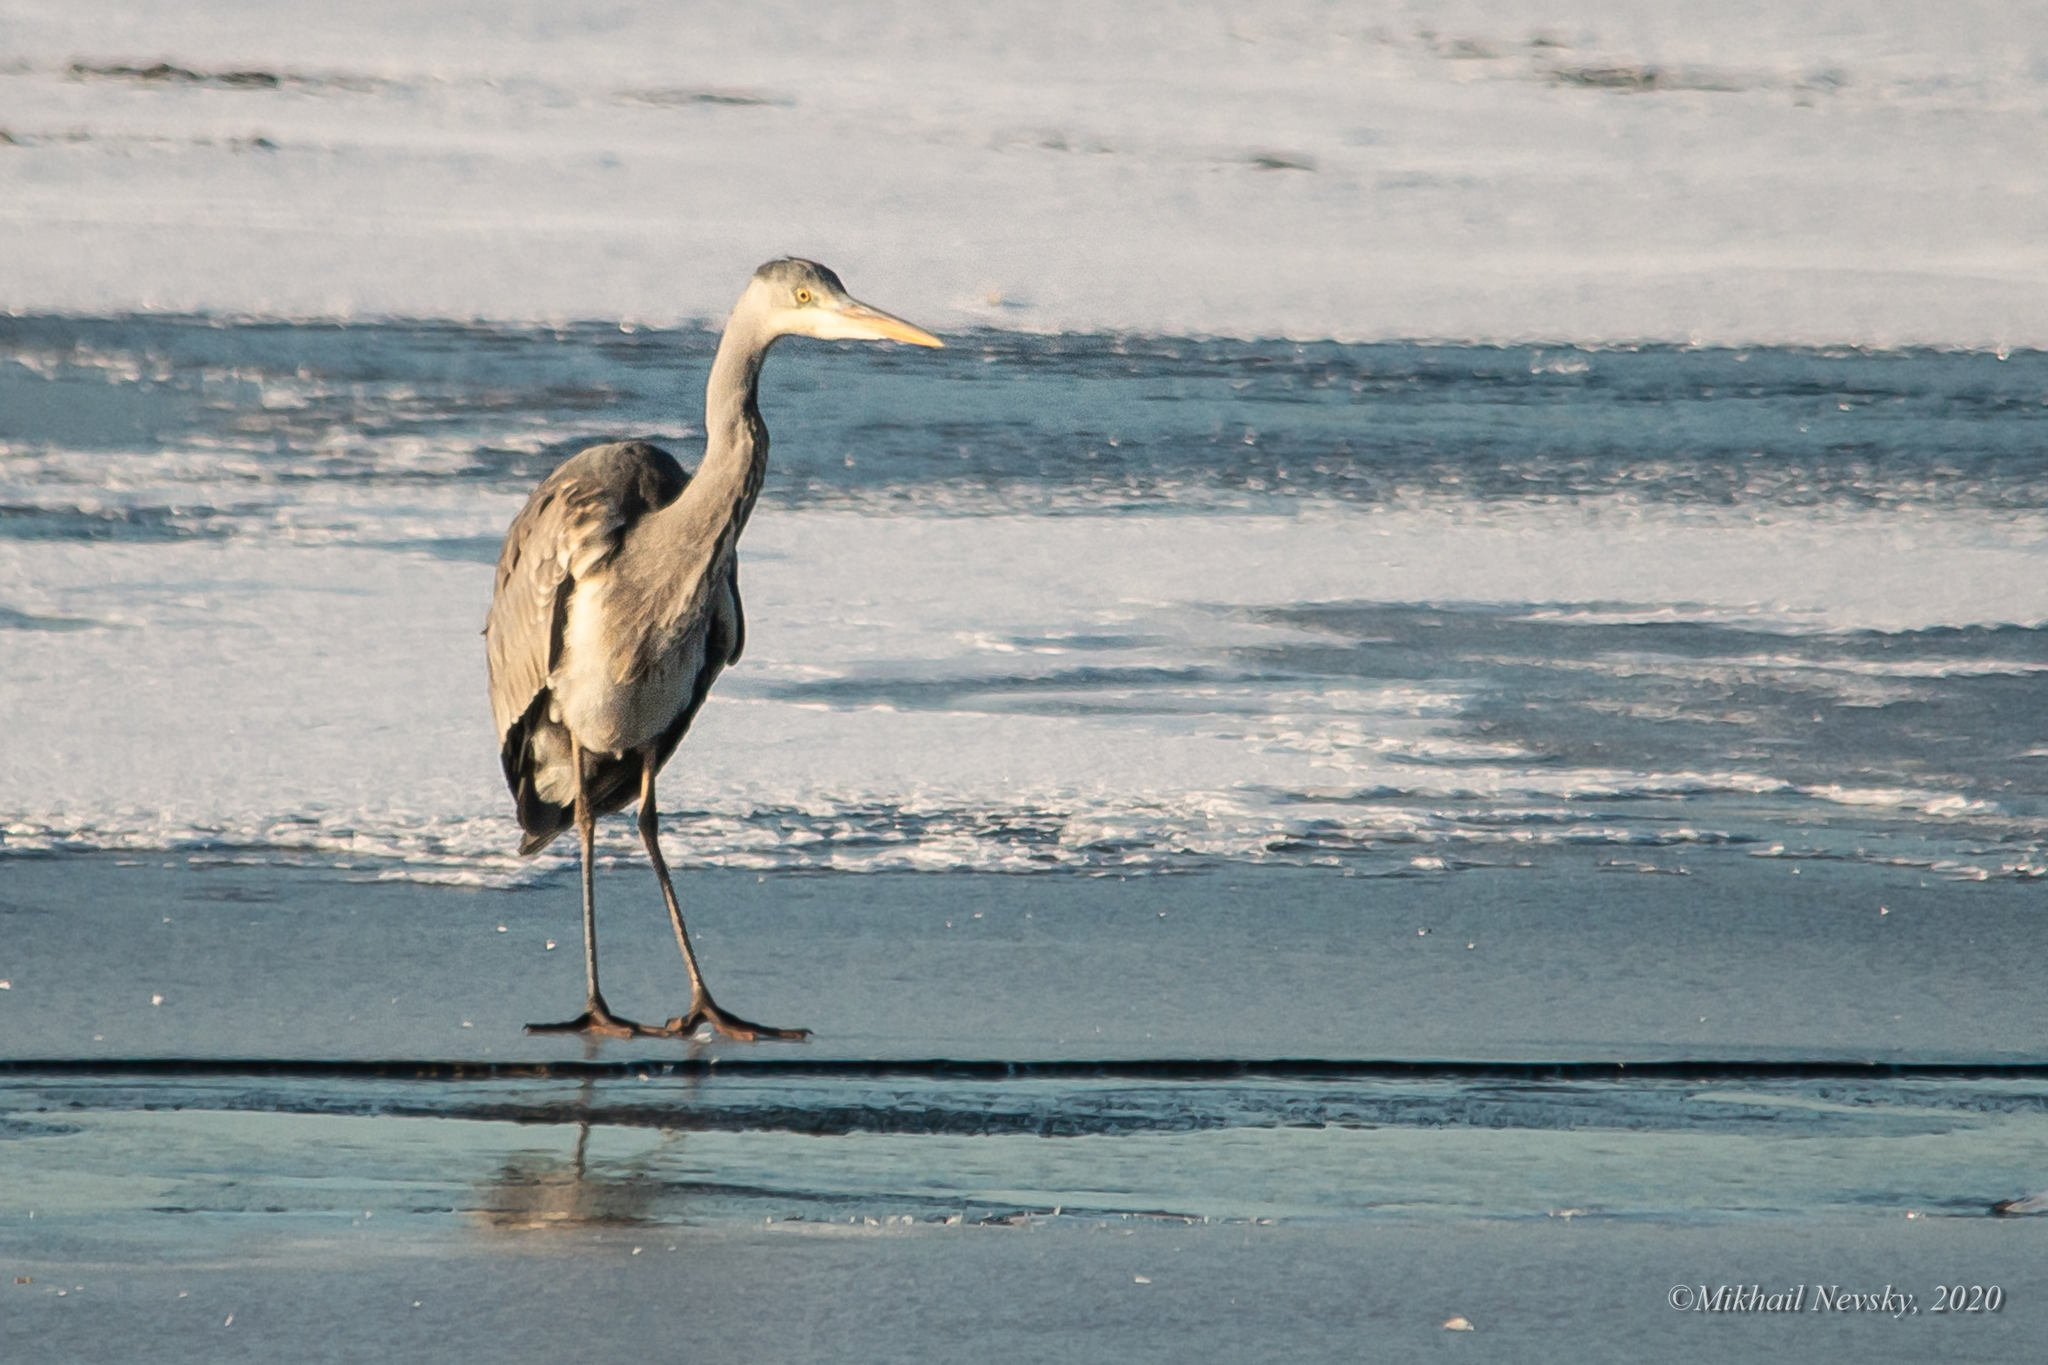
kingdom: Animalia
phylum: Chordata
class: Aves
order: Pelecaniformes
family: Ardeidae
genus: Ardea
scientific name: Ardea cinerea
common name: Grey heron
